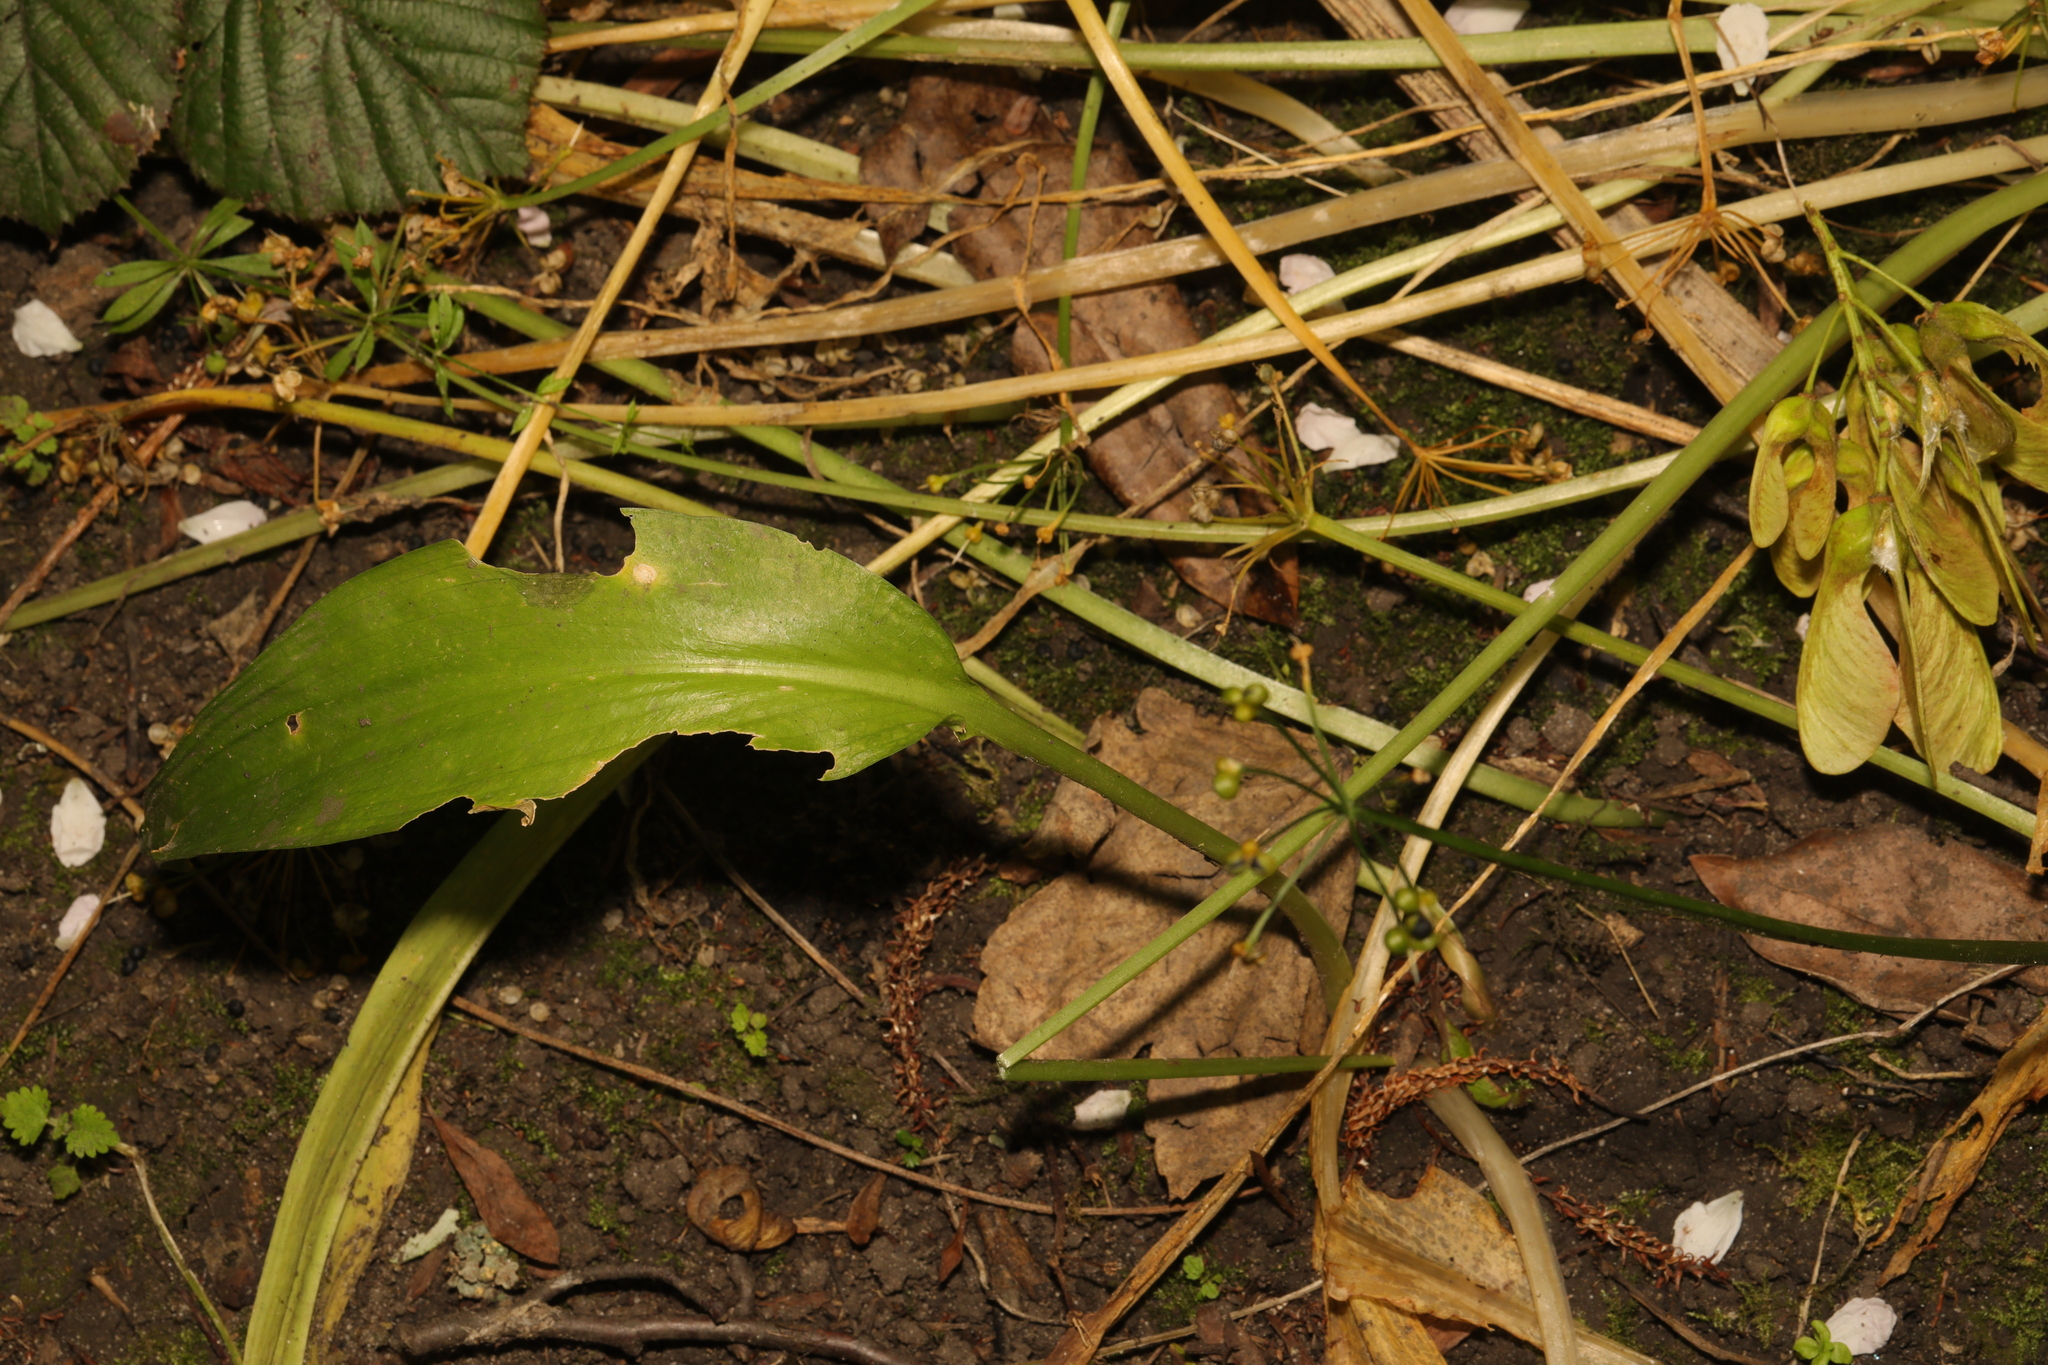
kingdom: Plantae
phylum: Tracheophyta
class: Liliopsida
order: Asparagales
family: Amaryllidaceae
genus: Allium
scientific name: Allium ursinum
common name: Ramsons
